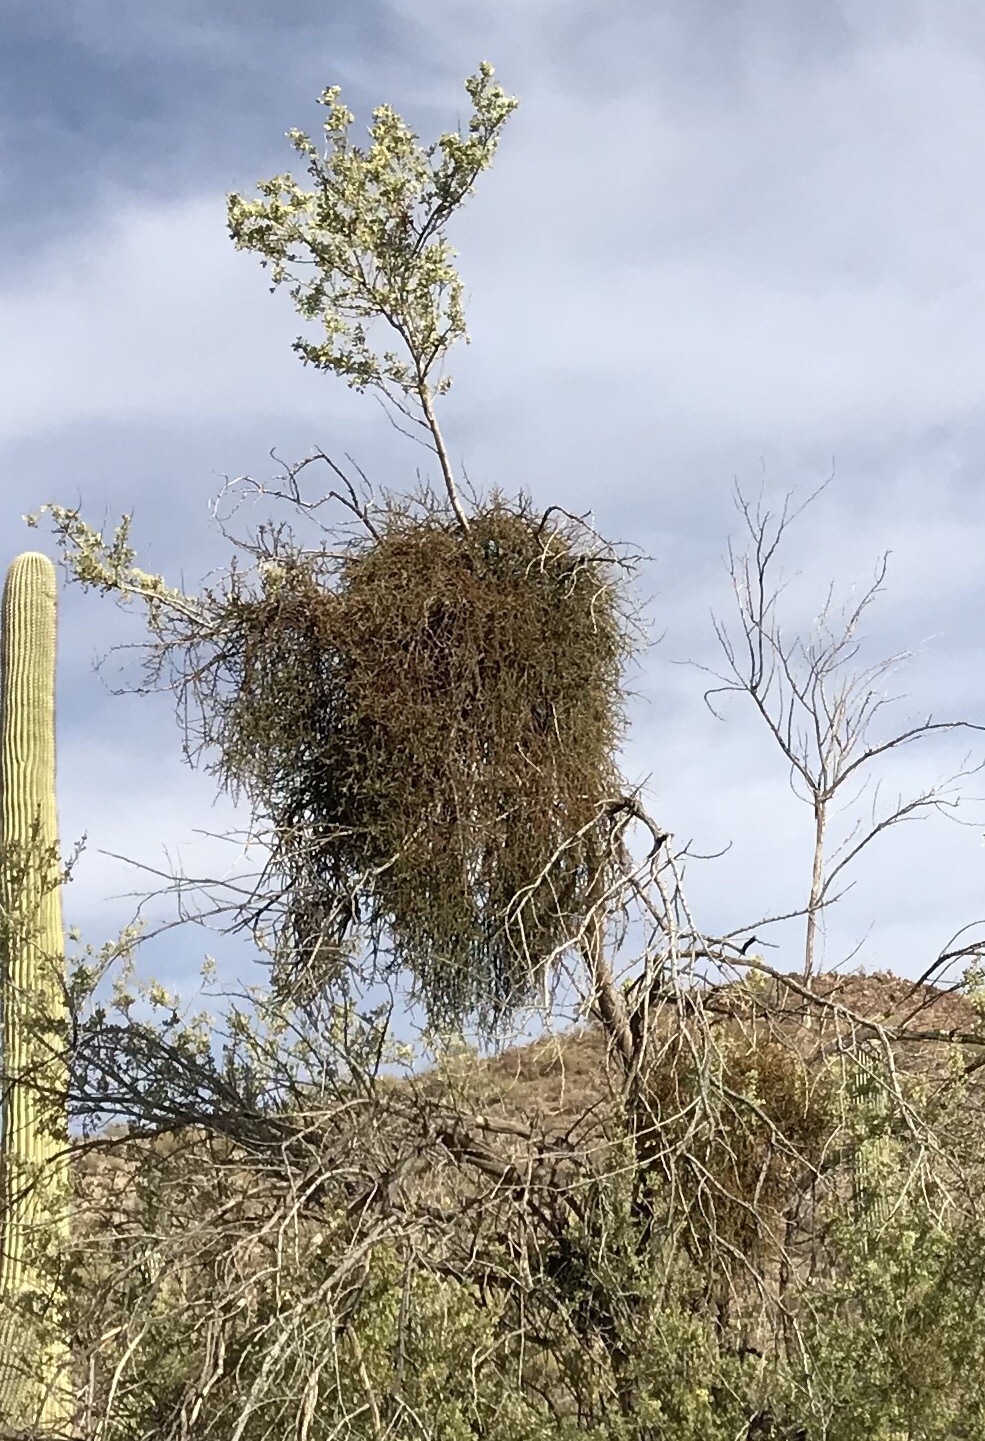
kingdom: Plantae
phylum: Tracheophyta
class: Magnoliopsida
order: Santalales
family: Viscaceae
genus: Phoradendron
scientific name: Phoradendron californicum
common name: Acacia mistletoe
